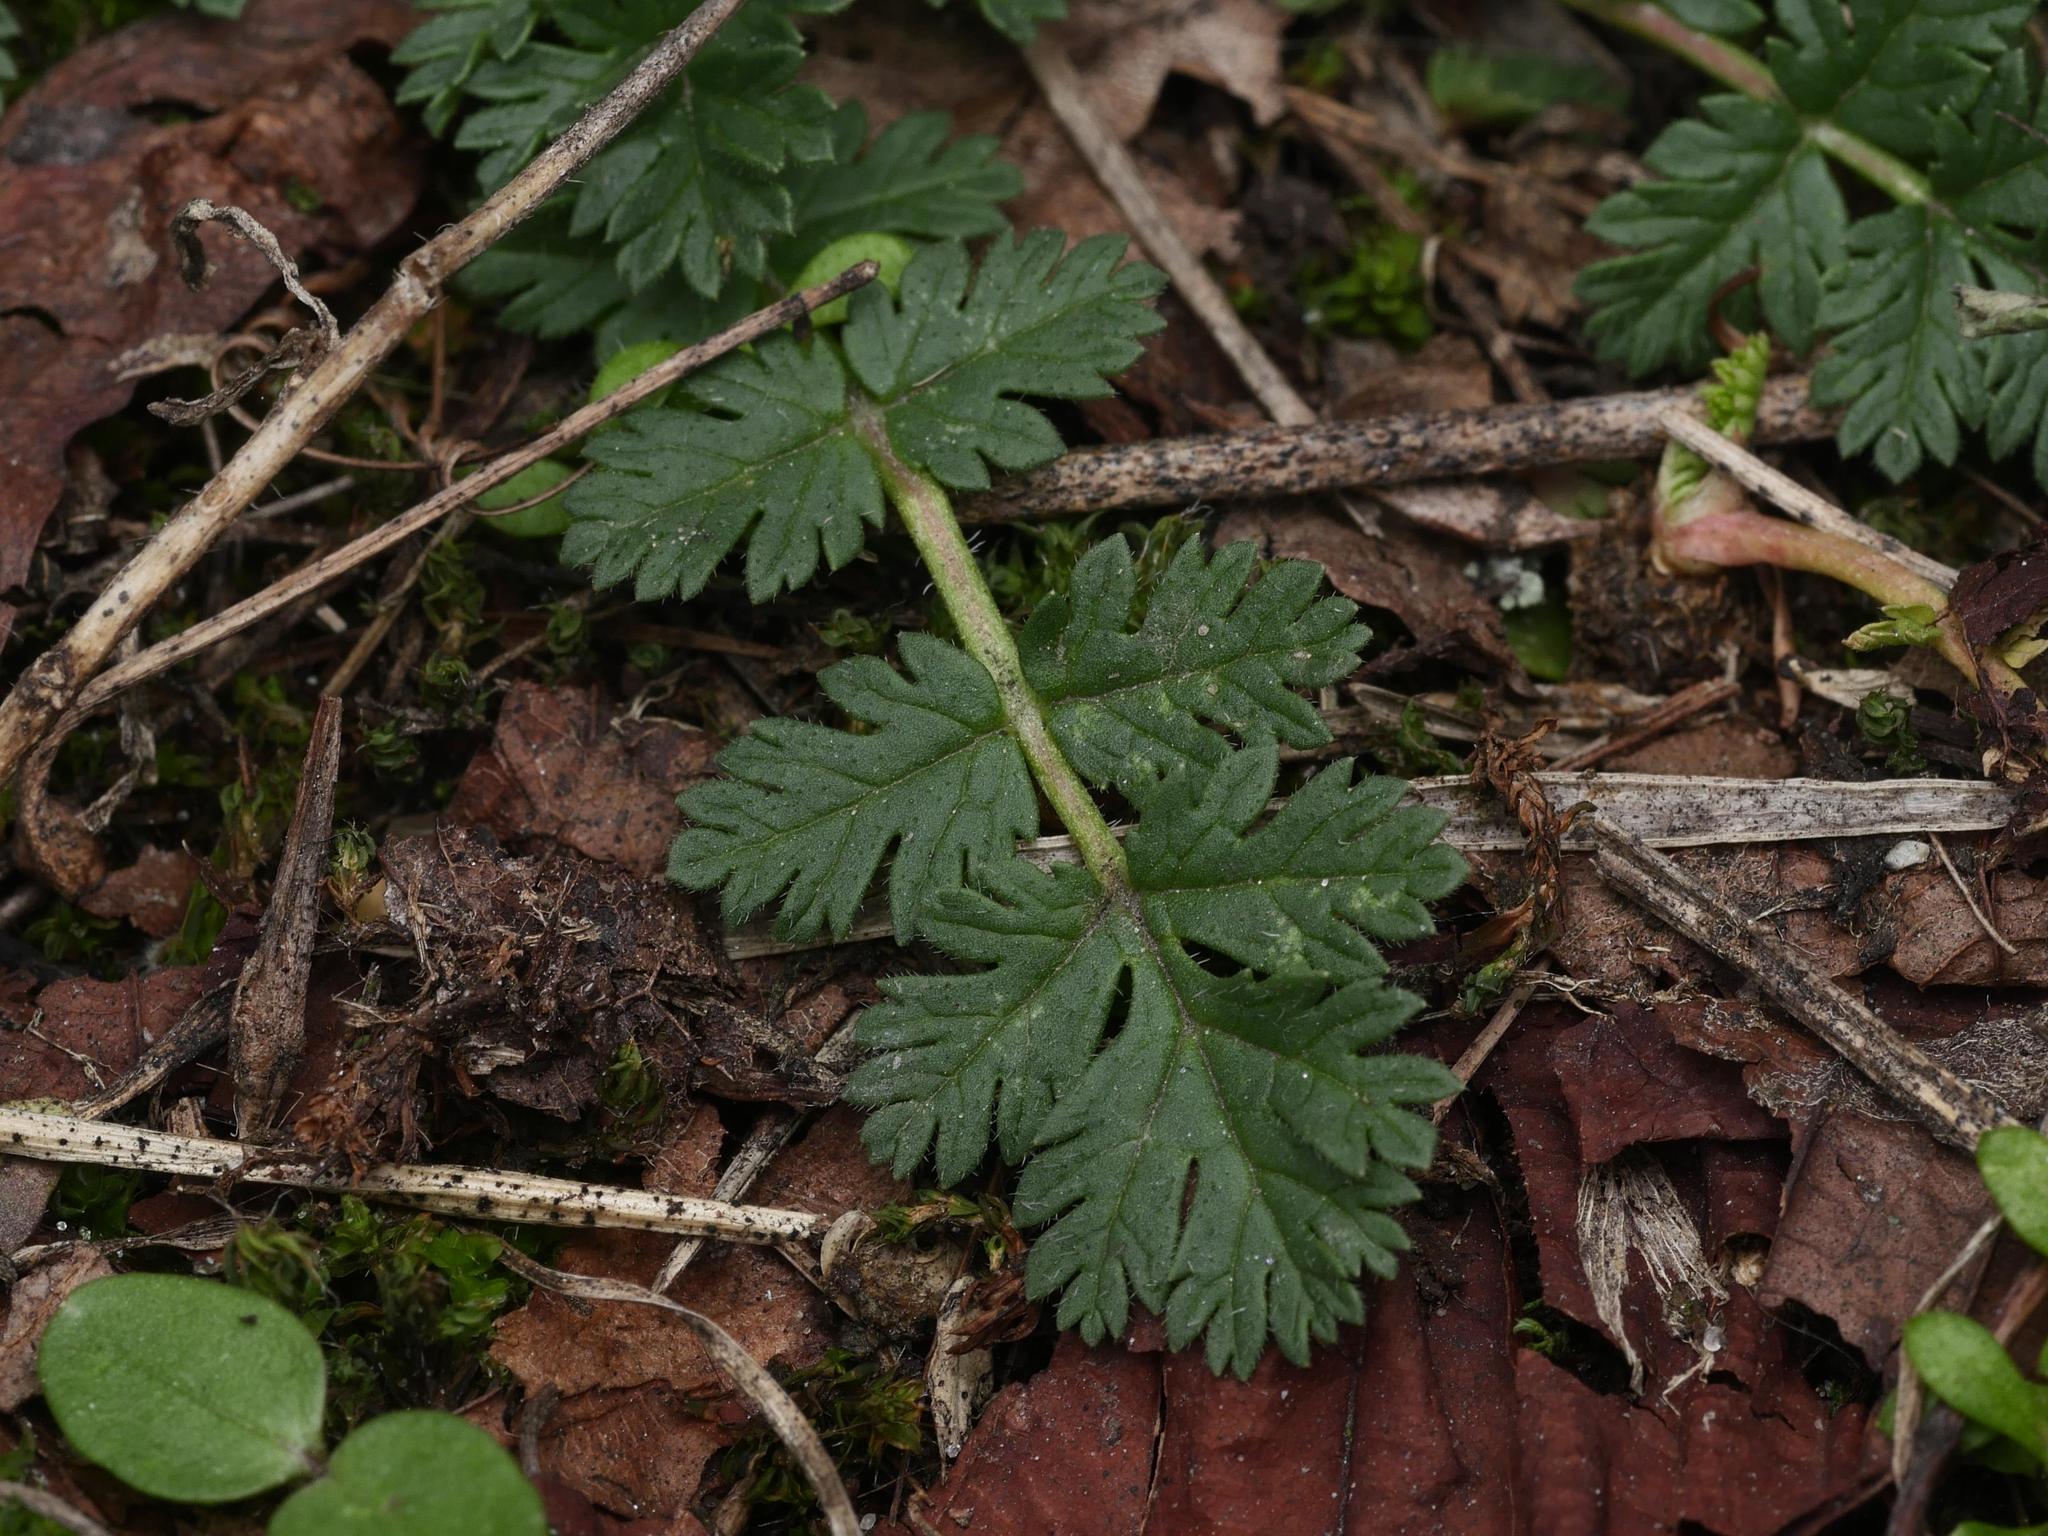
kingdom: Plantae
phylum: Tracheophyta
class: Magnoliopsida
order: Geraniales
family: Geraniaceae
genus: Erodium
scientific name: Erodium cicutarium
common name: Common stork's-bill
